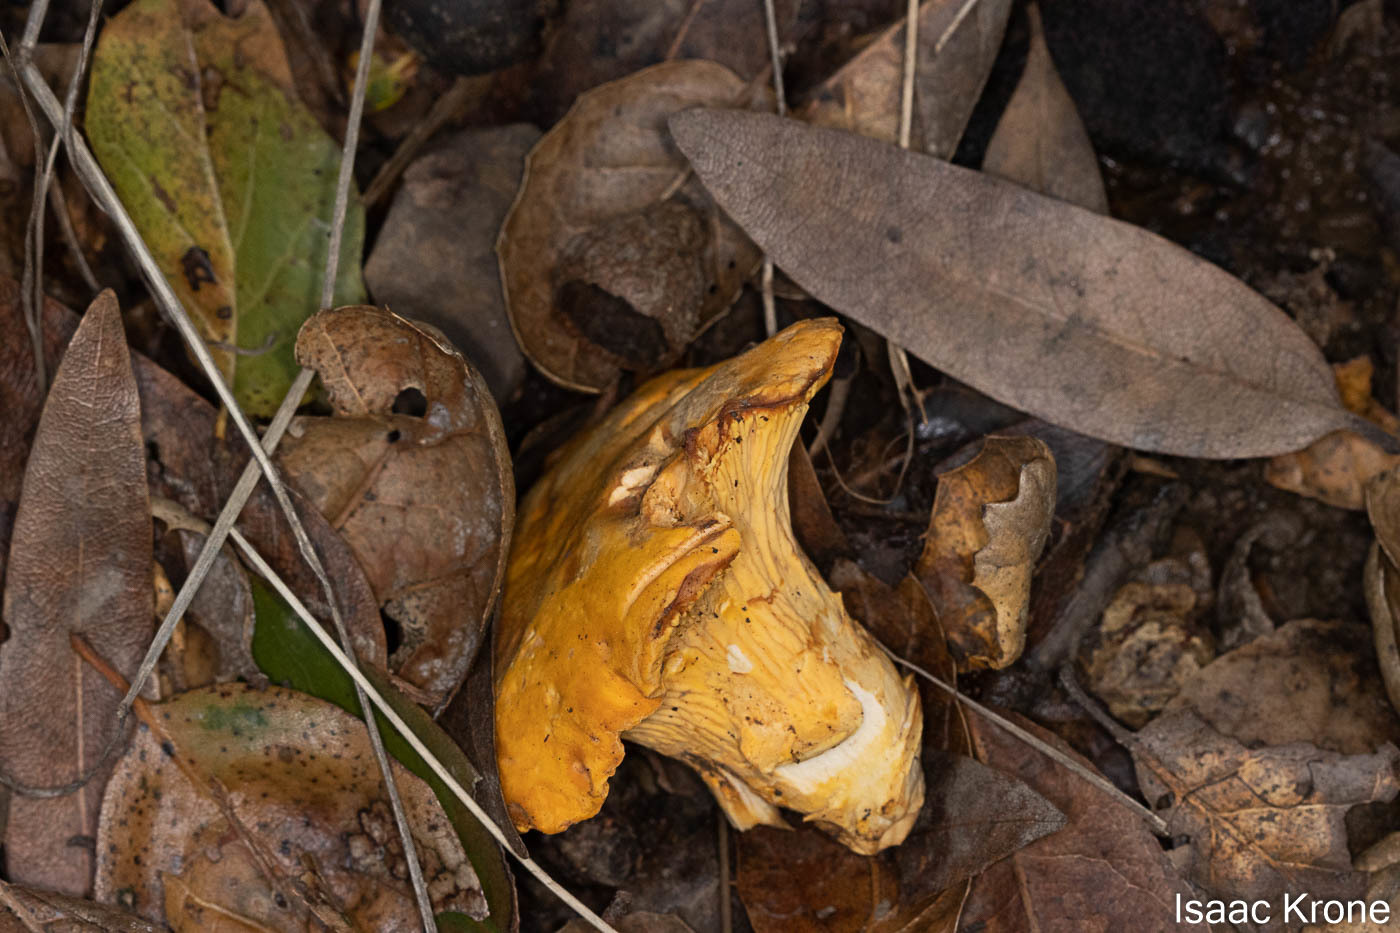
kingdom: Fungi
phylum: Basidiomycota
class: Agaricomycetes
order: Cantharellales
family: Hydnaceae
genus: Cantharellus
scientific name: Cantharellus californicus
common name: California golden chanterelle
